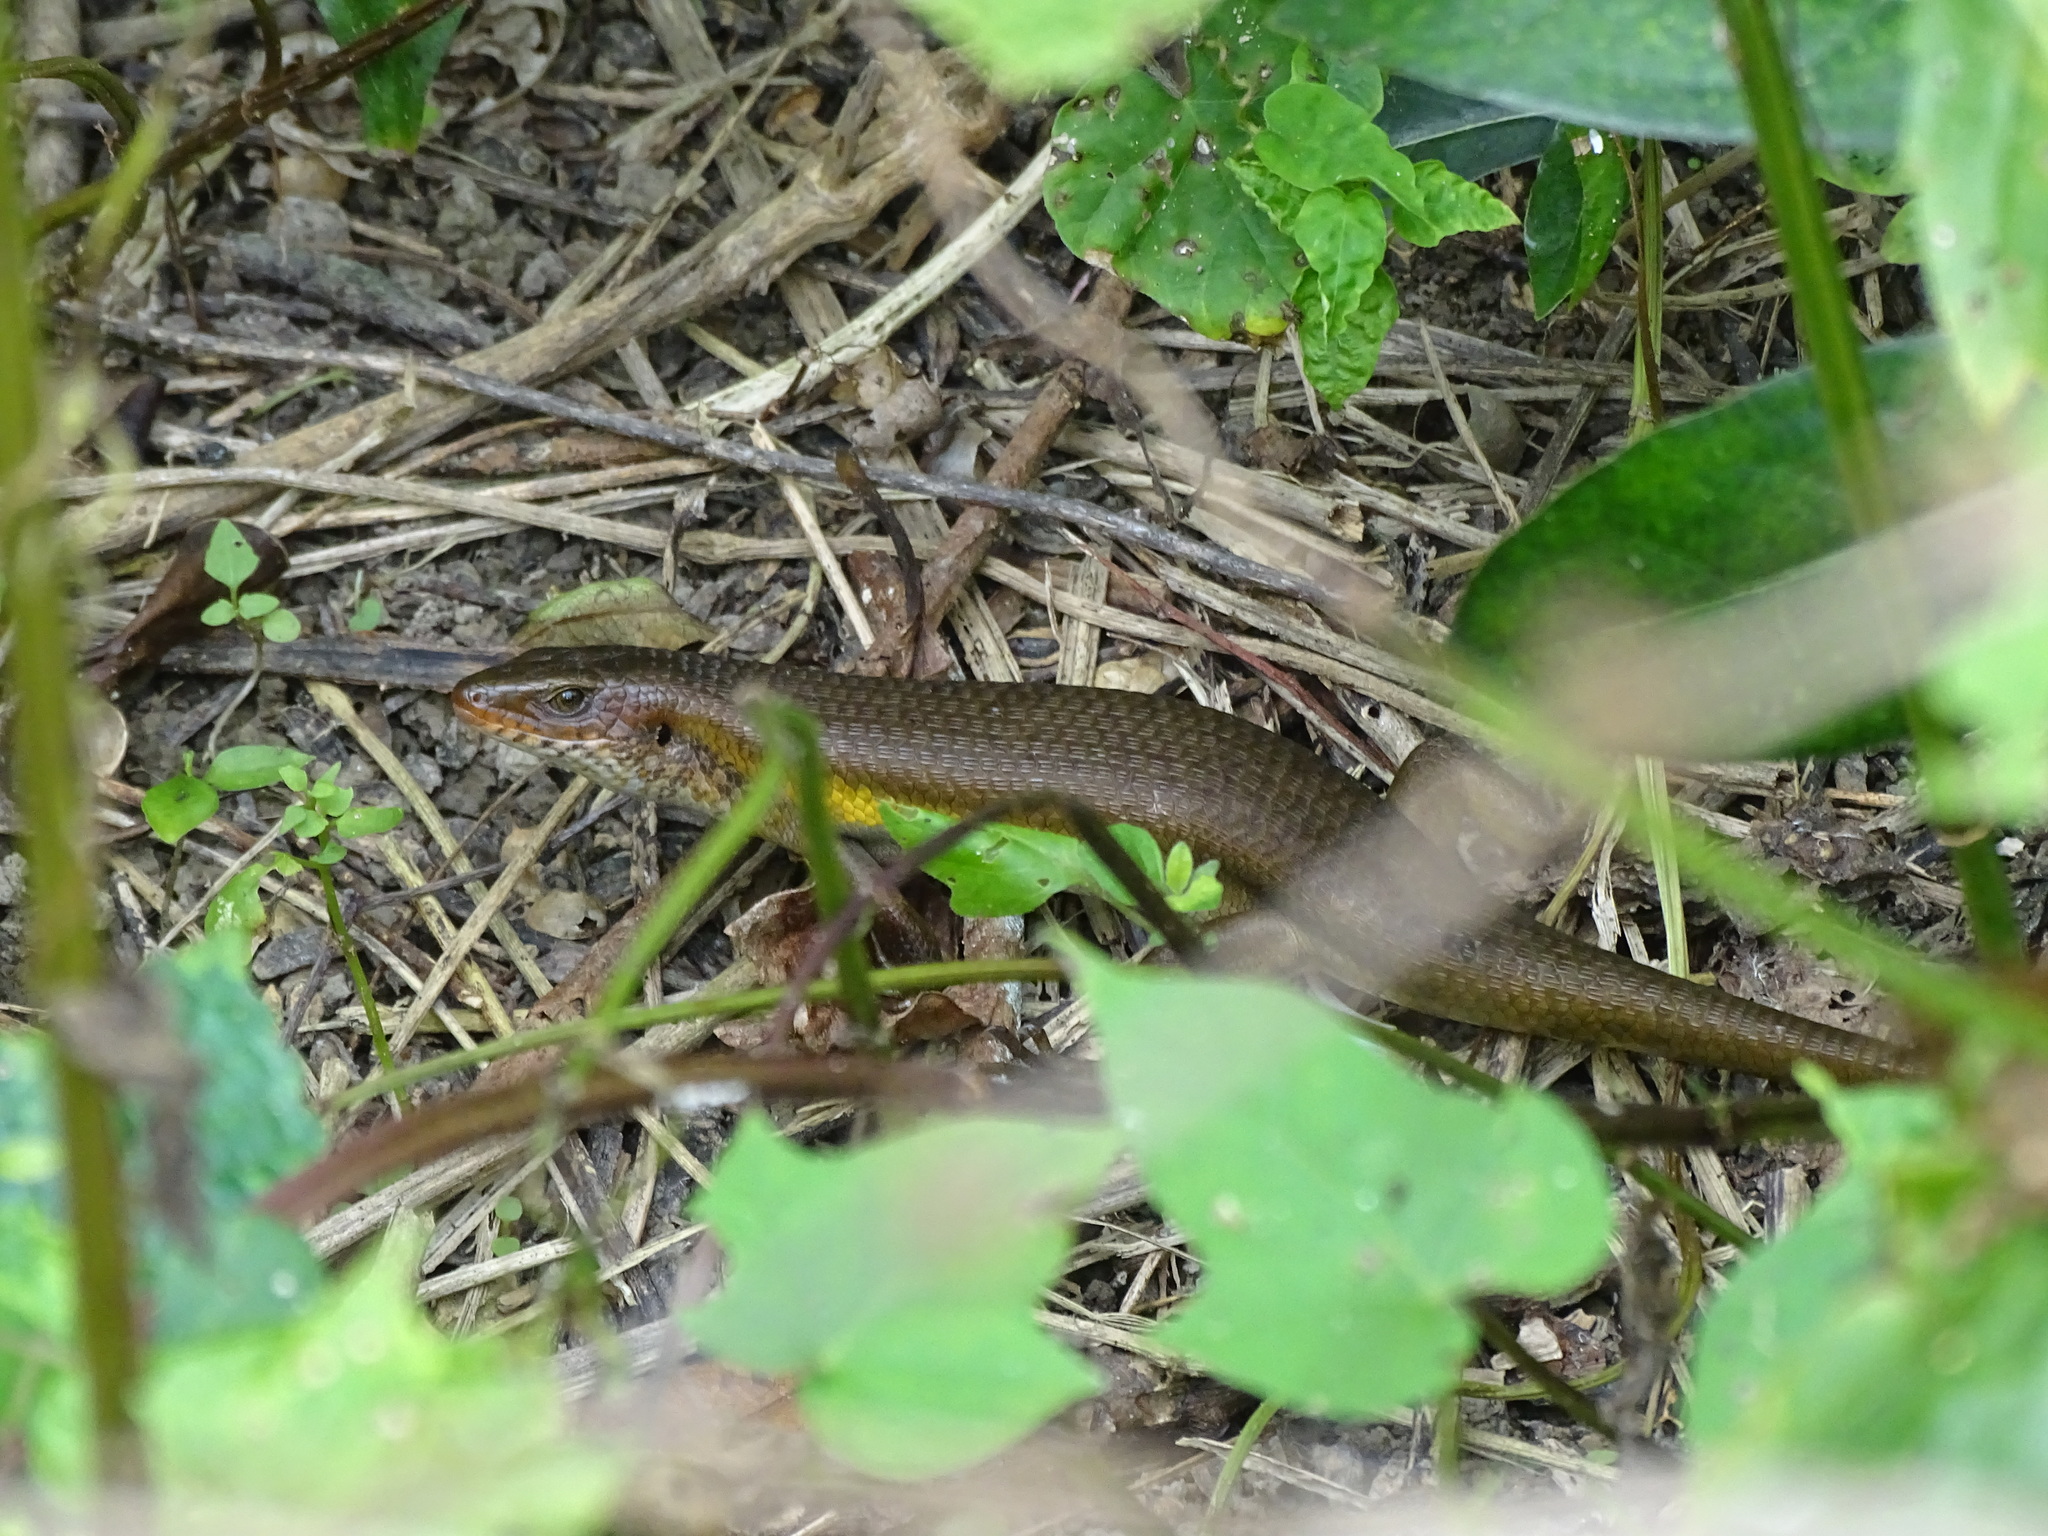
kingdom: Animalia
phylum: Chordata
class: Squamata
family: Scincidae
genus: Eutropis
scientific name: Eutropis multifasciata
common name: Common mabuya
